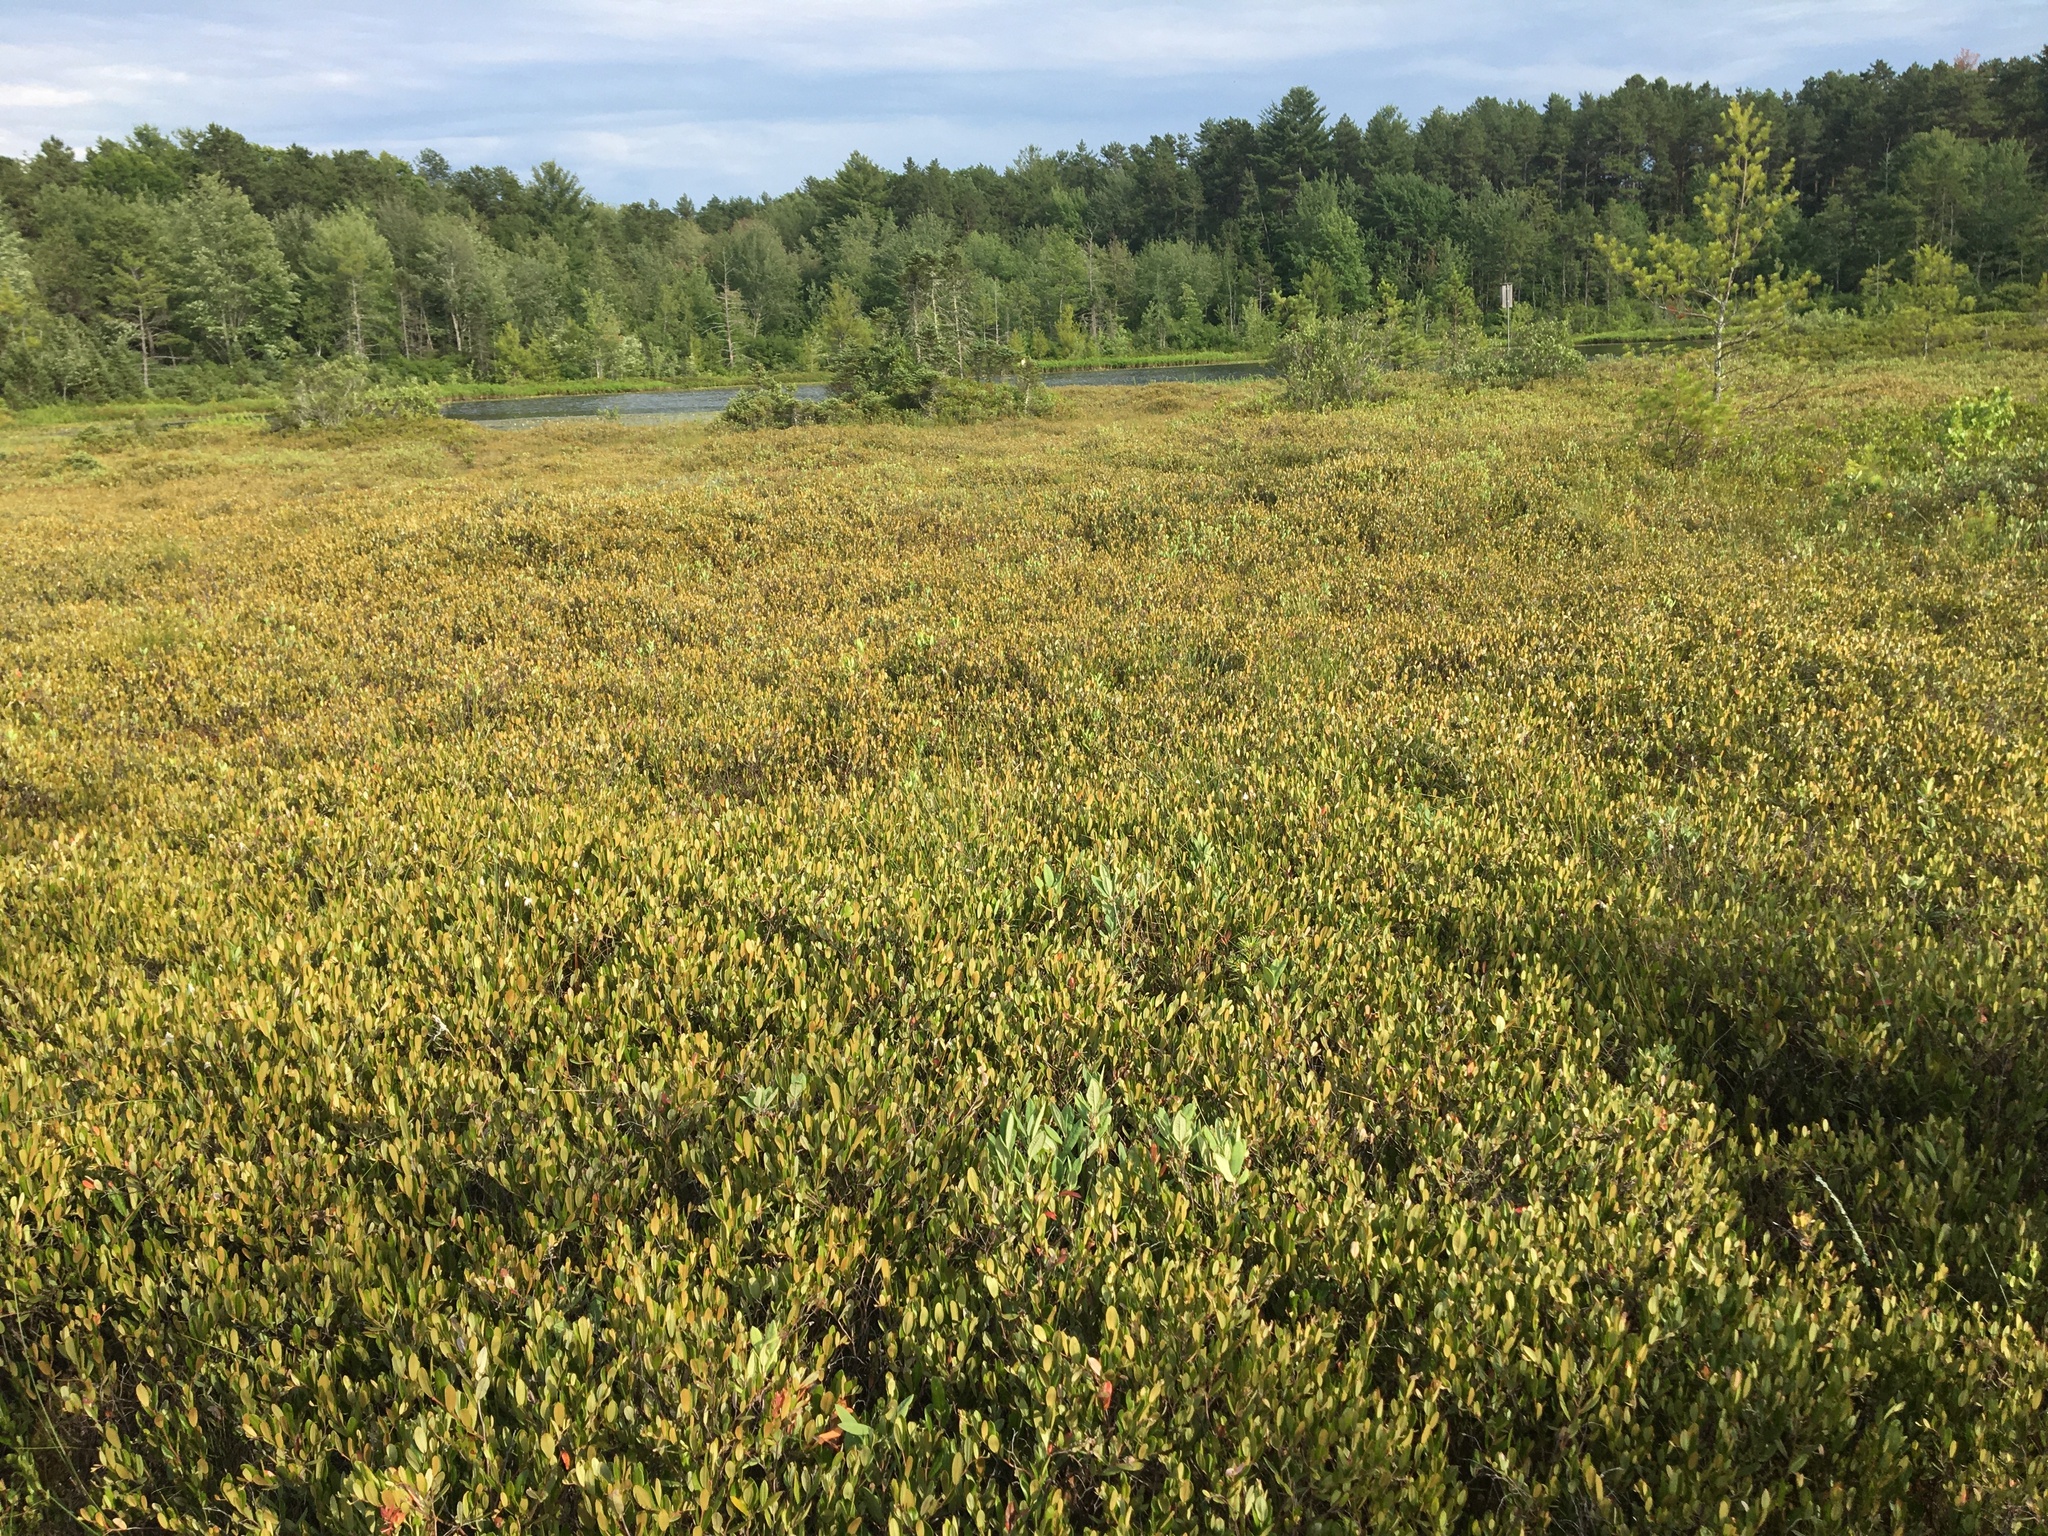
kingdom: Plantae
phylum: Tracheophyta
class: Magnoliopsida
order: Ericales
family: Ericaceae
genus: Chamaedaphne
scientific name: Chamaedaphne calyculata
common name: Leatherleaf
